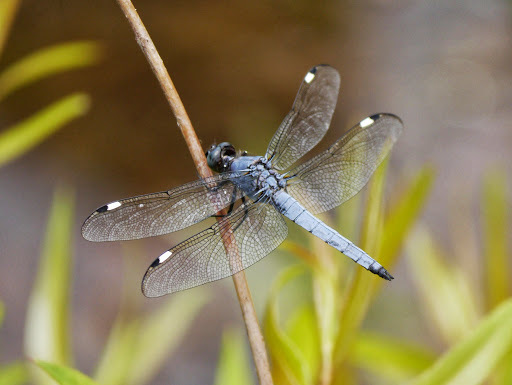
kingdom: Animalia
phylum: Arthropoda
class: Insecta
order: Odonata
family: Libellulidae
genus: Libellula
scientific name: Libellula cyanea
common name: Spangled skimmer
